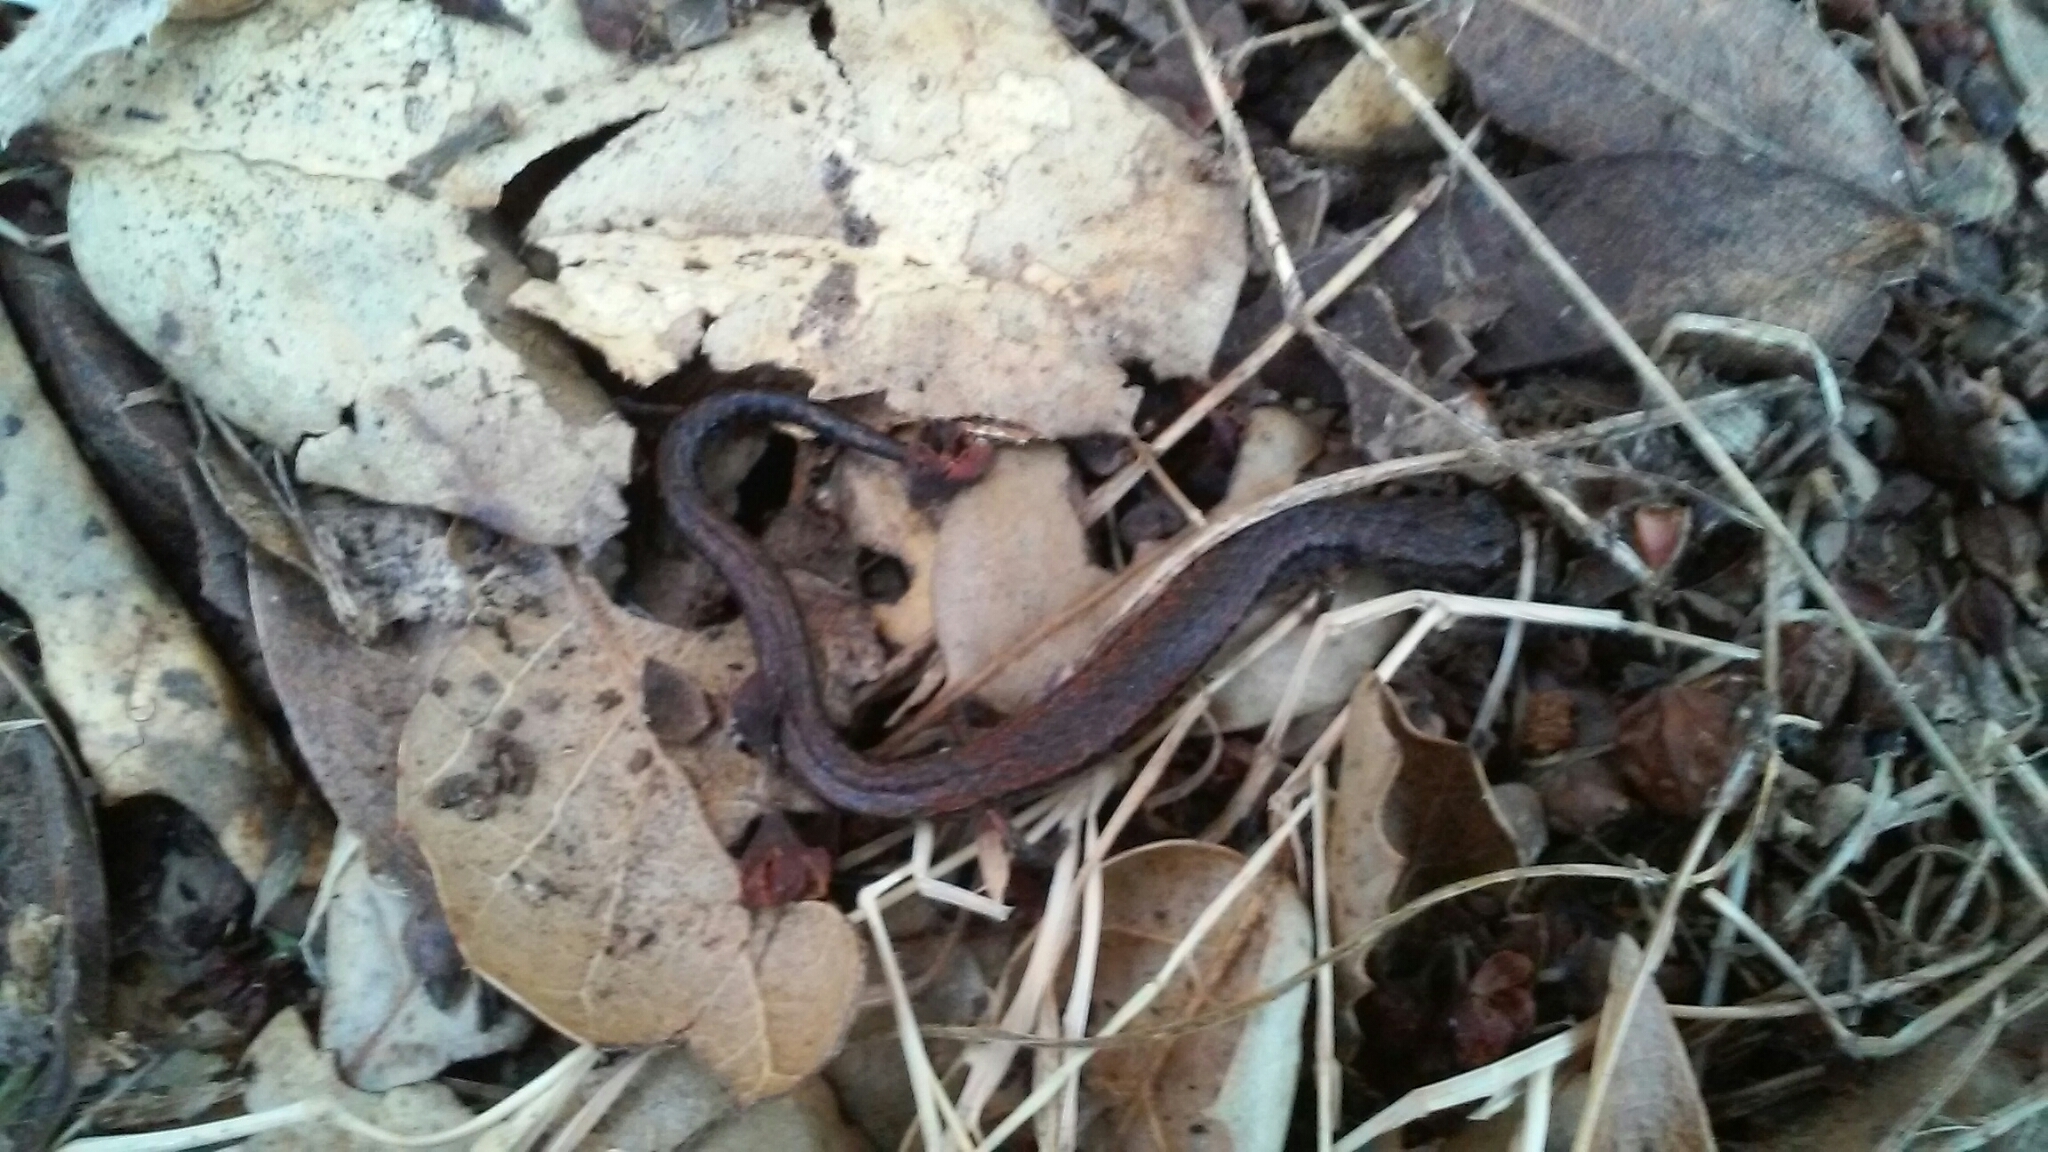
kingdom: Animalia
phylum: Chordata
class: Amphibia
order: Caudata
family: Plethodontidae
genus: Batrachoseps
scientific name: Batrachoseps attenuatus
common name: California slender salamander
